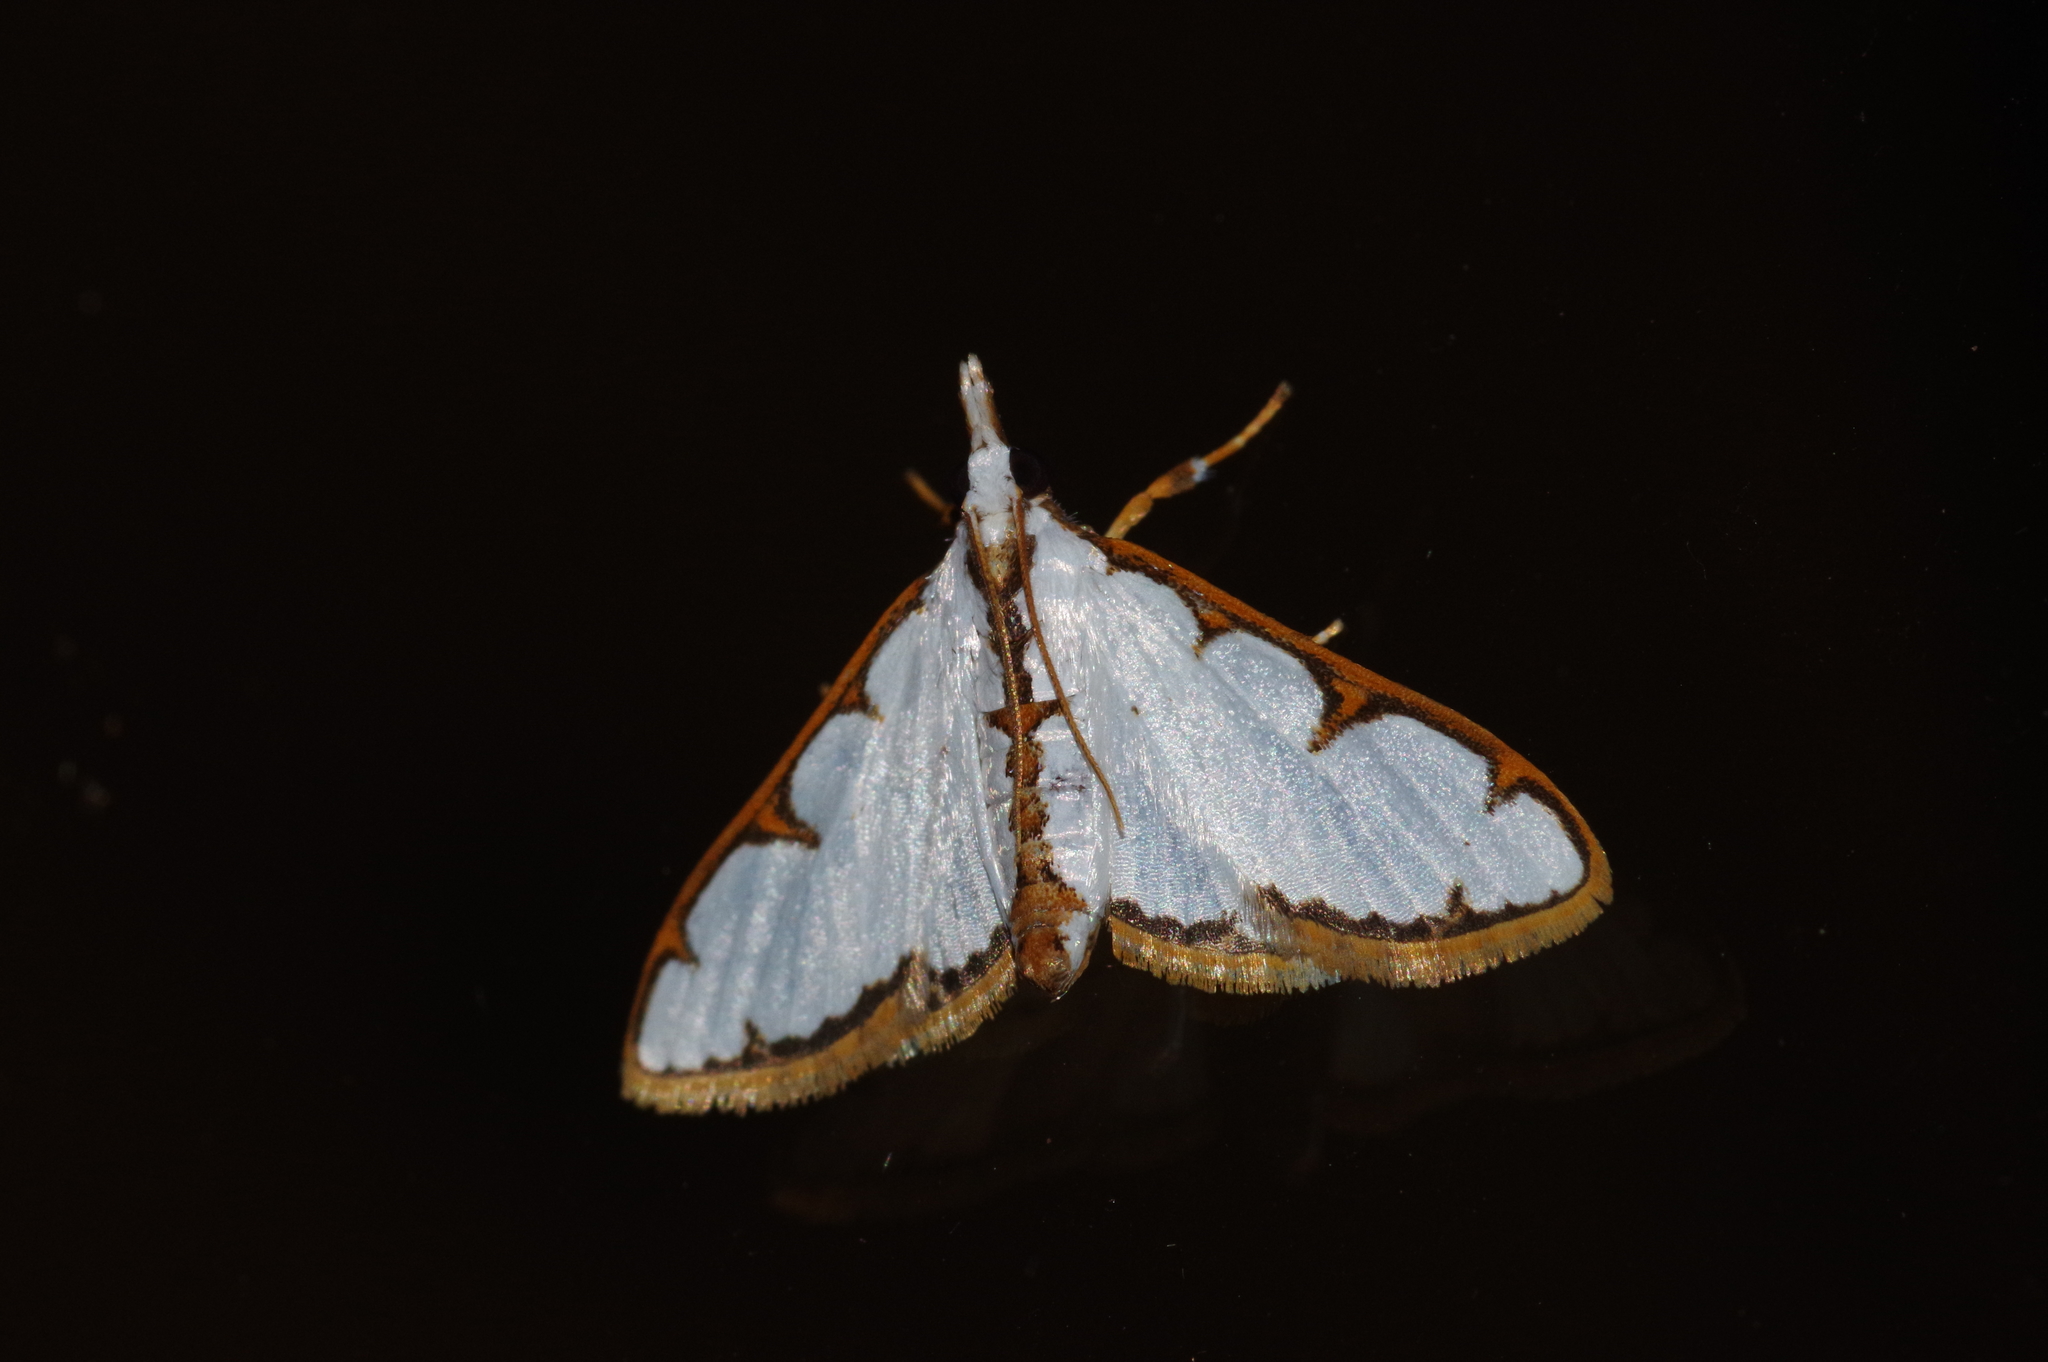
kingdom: Animalia
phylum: Arthropoda
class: Insecta
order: Lepidoptera
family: Crambidae
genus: Cirrhochrista
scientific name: Cirrhochrista brizoalis
